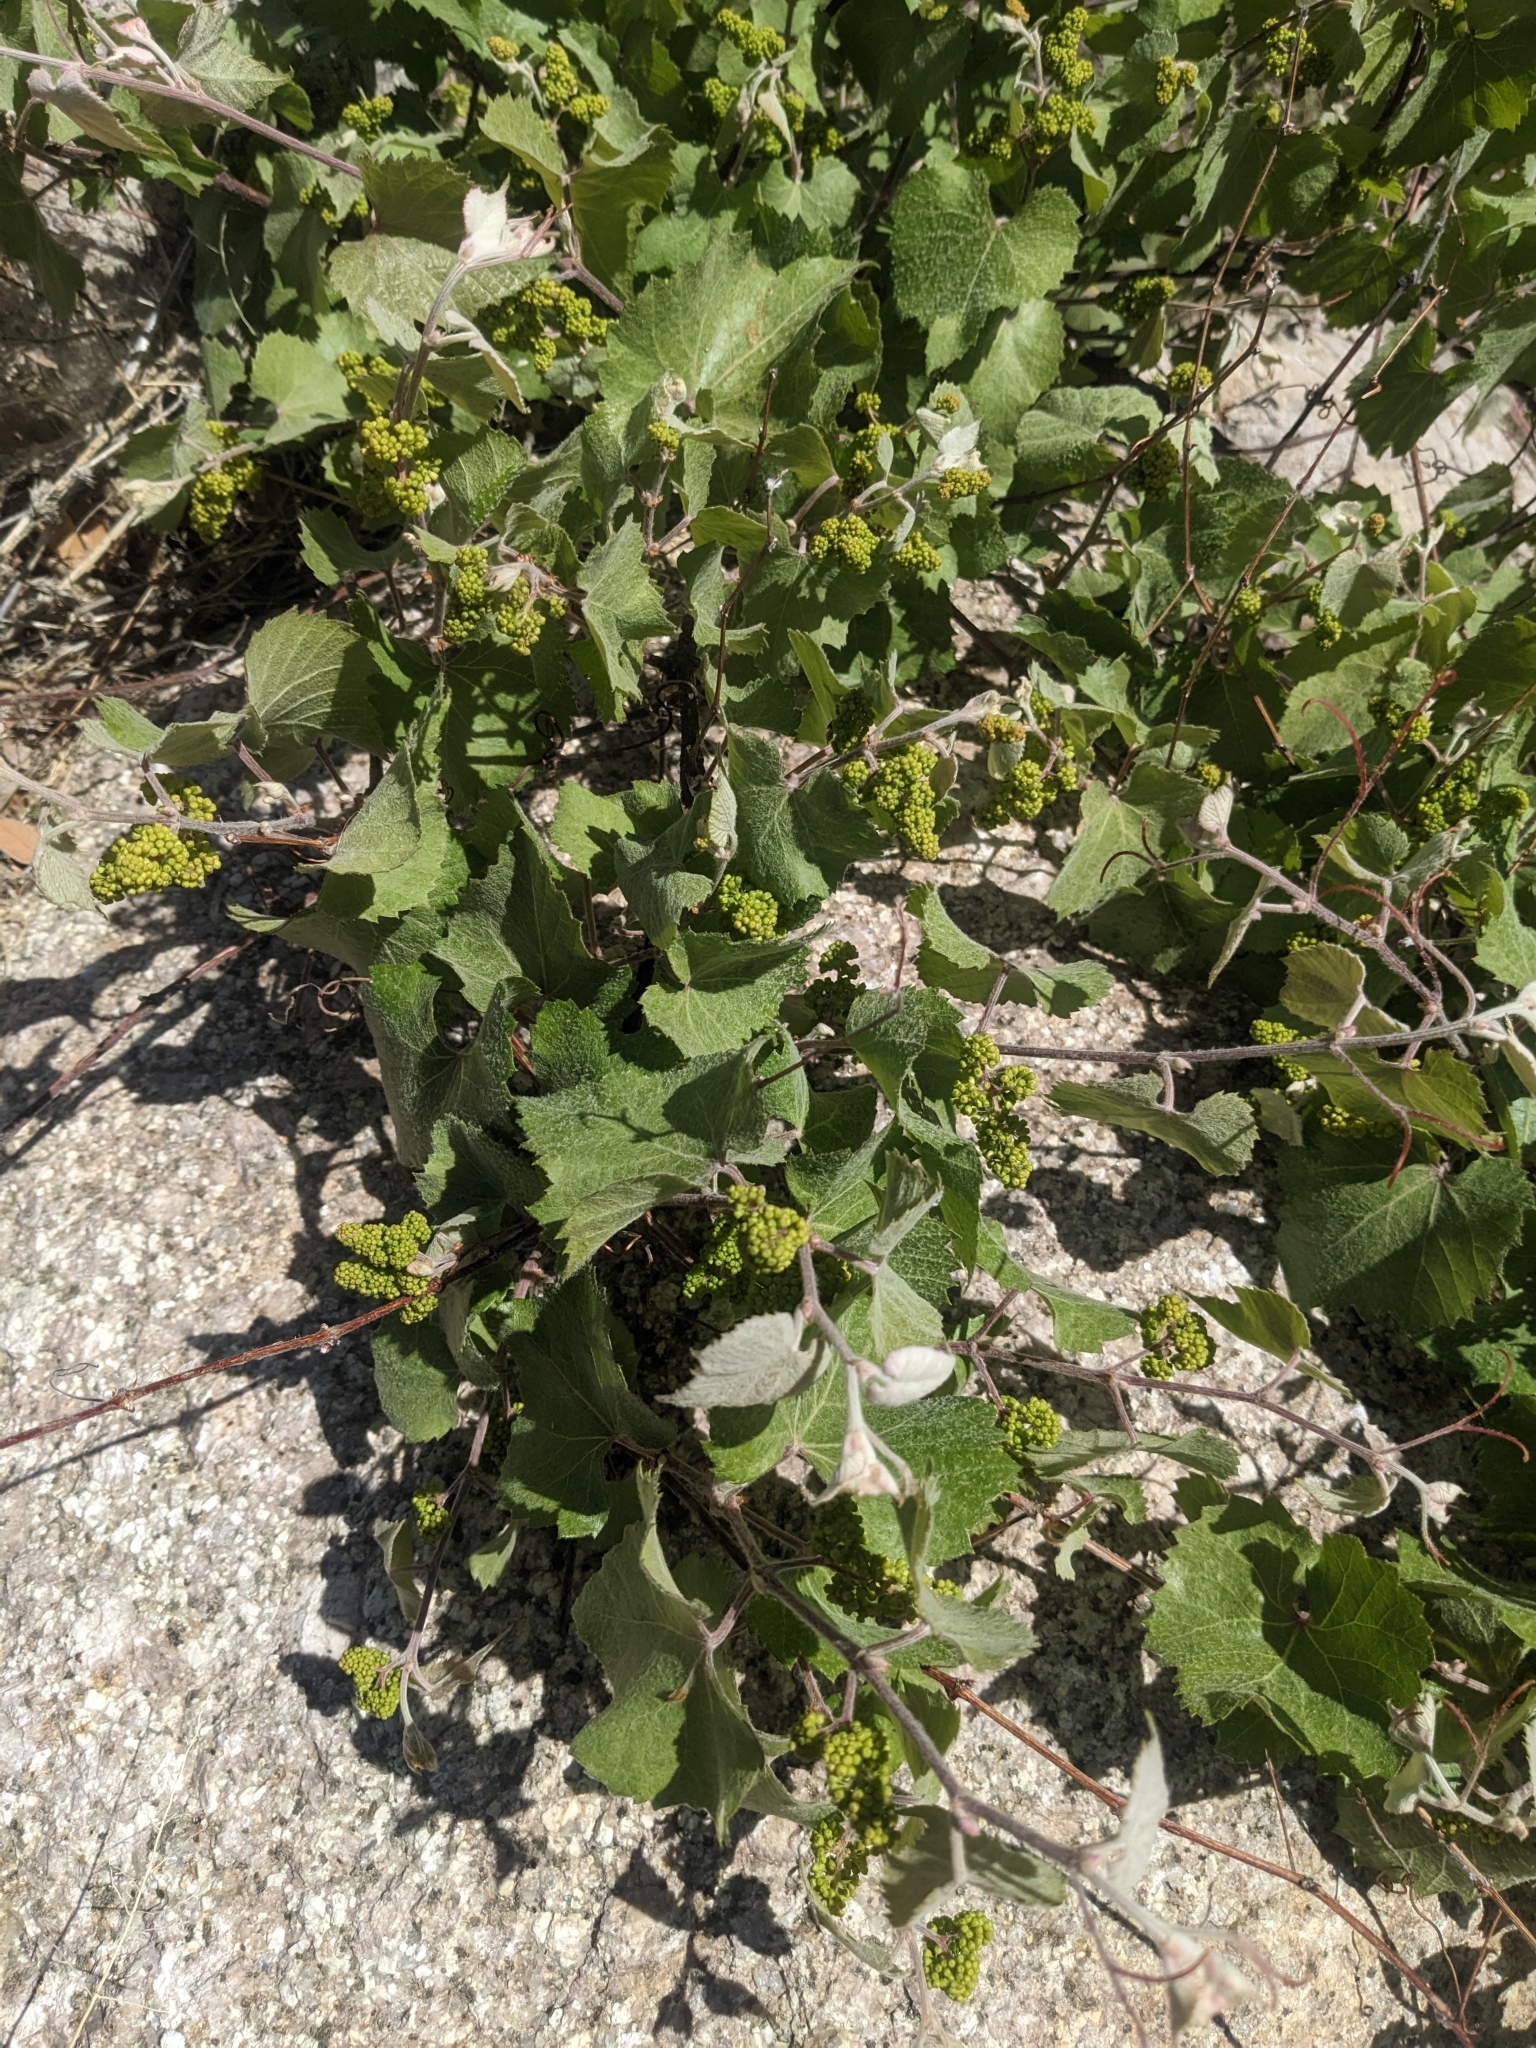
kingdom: Plantae
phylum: Tracheophyta
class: Magnoliopsida
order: Vitales
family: Vitaceae
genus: Vitis
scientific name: Vitis arizonica
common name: Canyon grape
